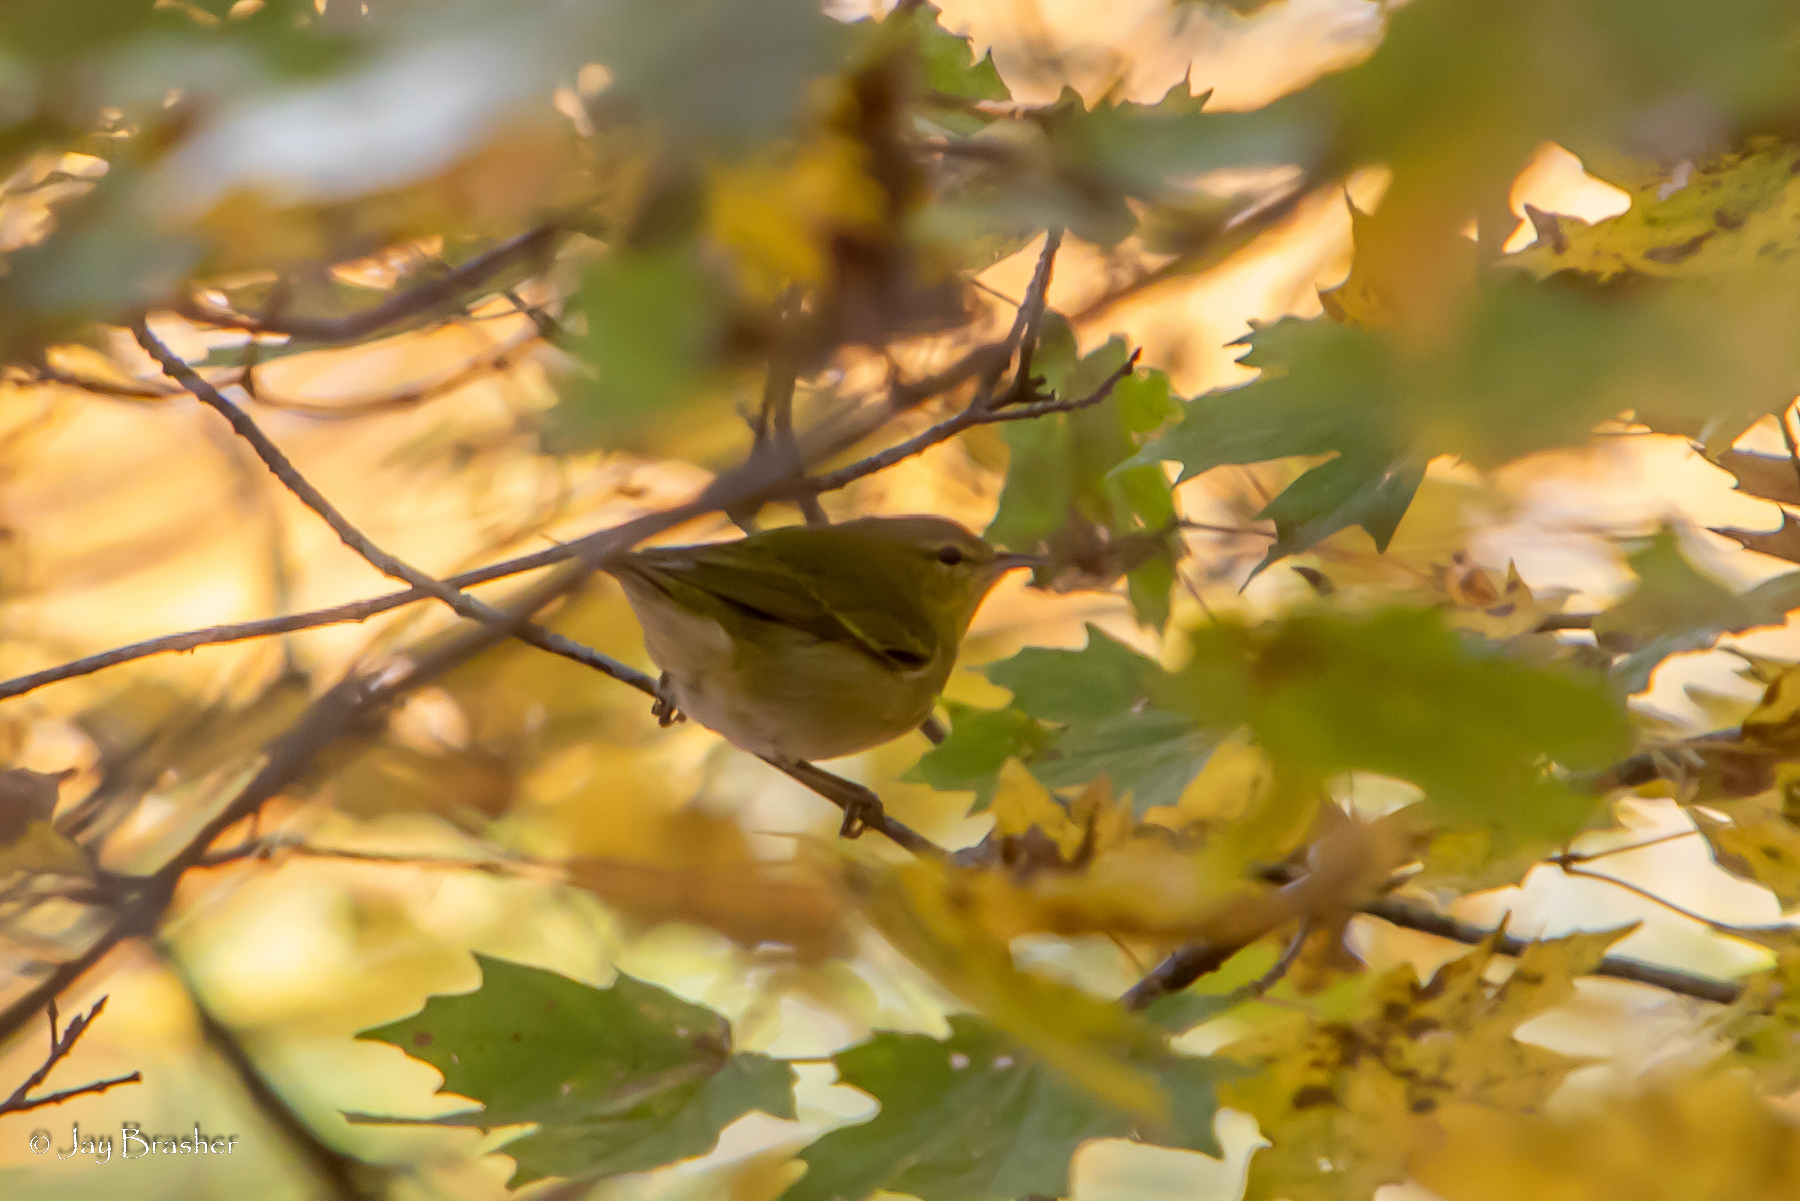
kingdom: Animalia
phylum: Chordata
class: Aves
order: Passeriformes
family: Parulidae
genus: Leiothlypis
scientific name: Leiothlypis peregrina
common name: Tennessee warbler
